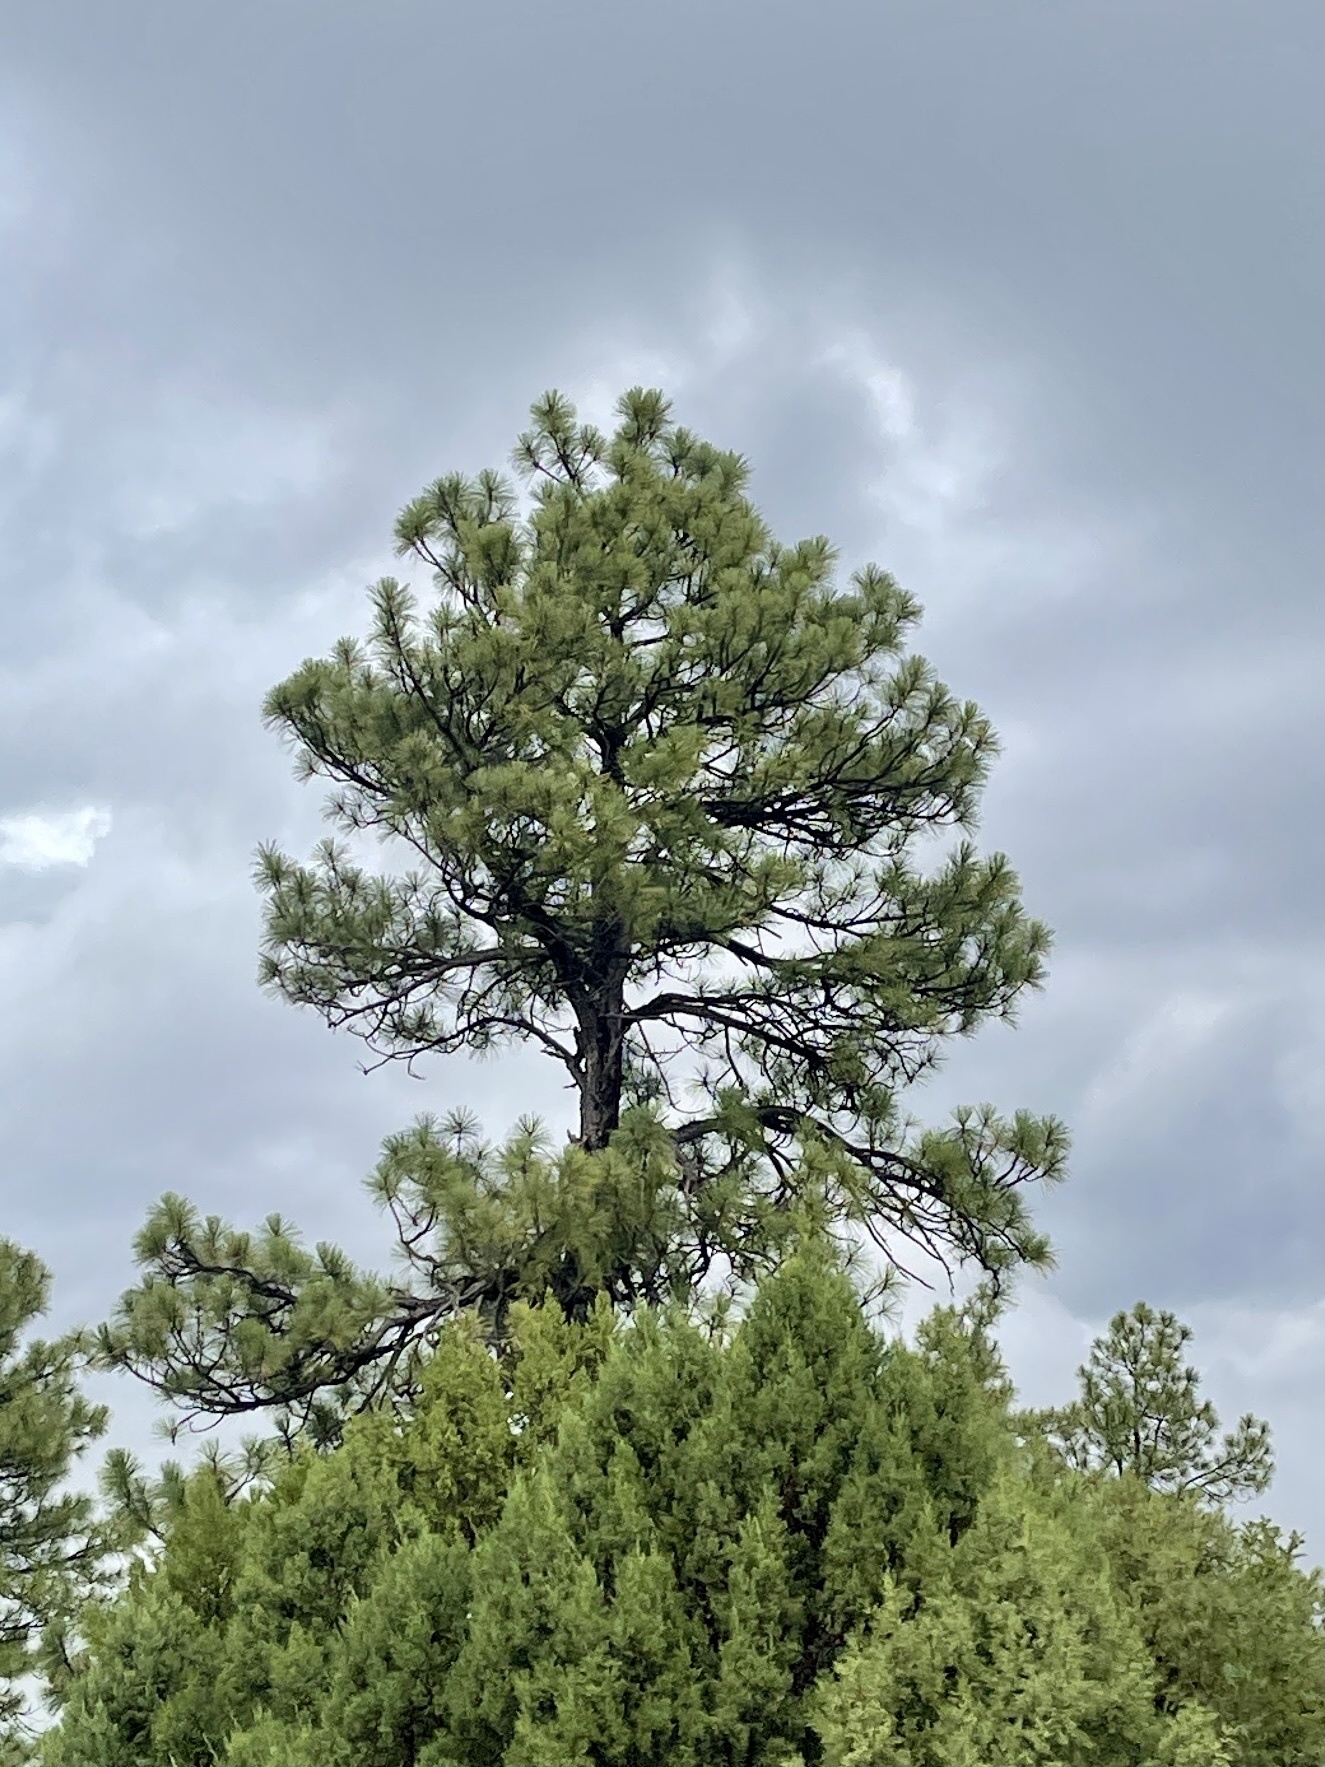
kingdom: Plantae
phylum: Tracheophyta
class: Pinopsida
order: Pinales
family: Pinaceae
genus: Pinus
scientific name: Pinus ponderosa
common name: Western yellow-pine
